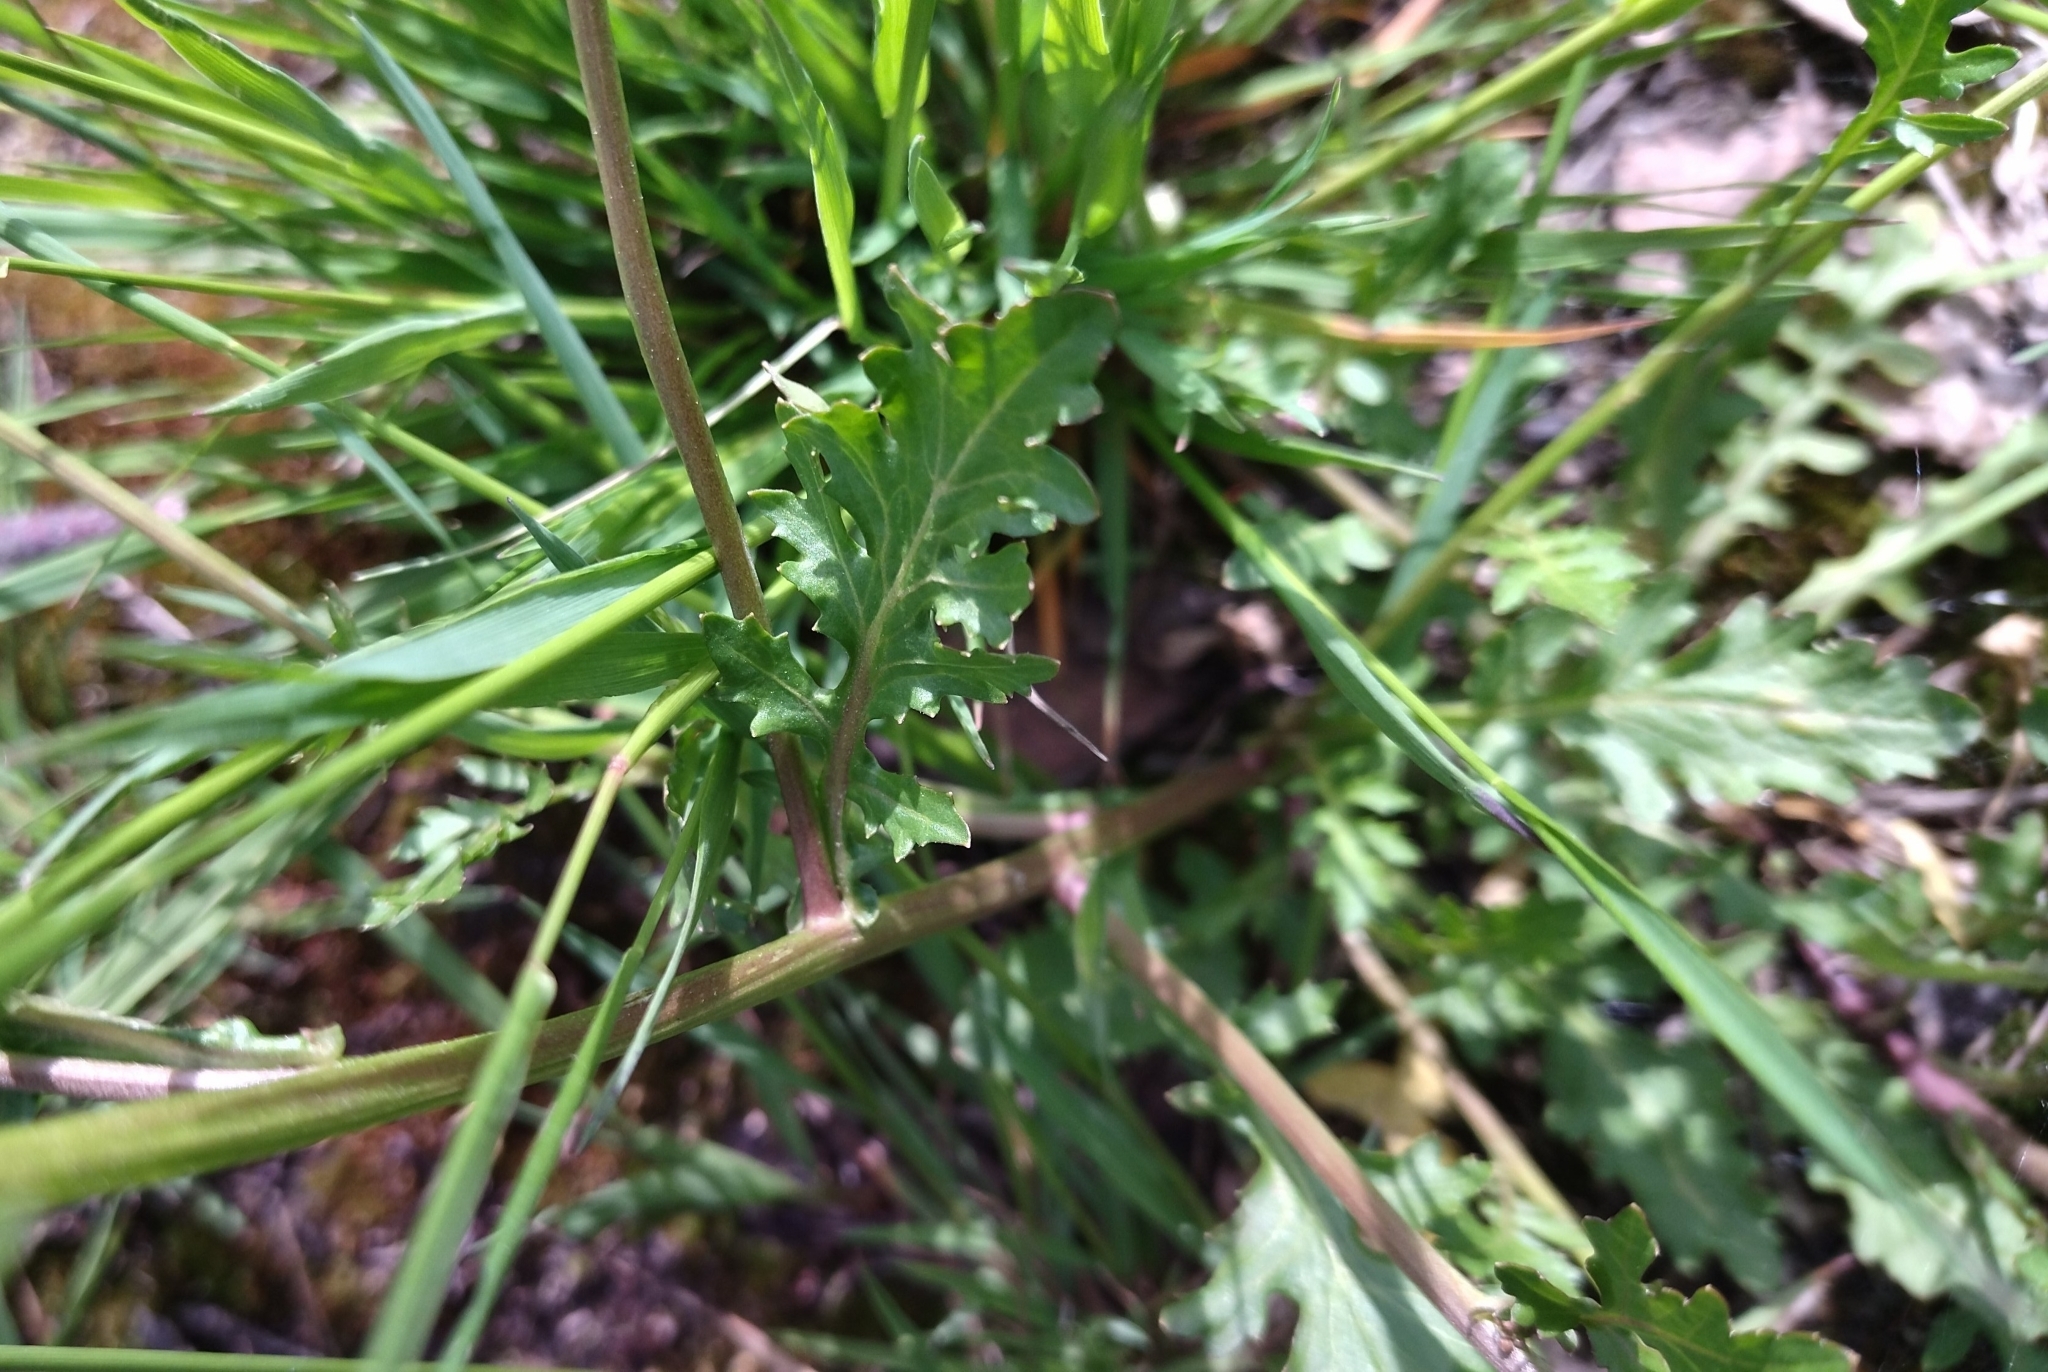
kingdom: Plantae
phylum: Tracheophyta
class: Magnoliopsida
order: Brassicales
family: Brassicaceae
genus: Rorippa
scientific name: Rorippa palustris
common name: Marsh yellow-cress
